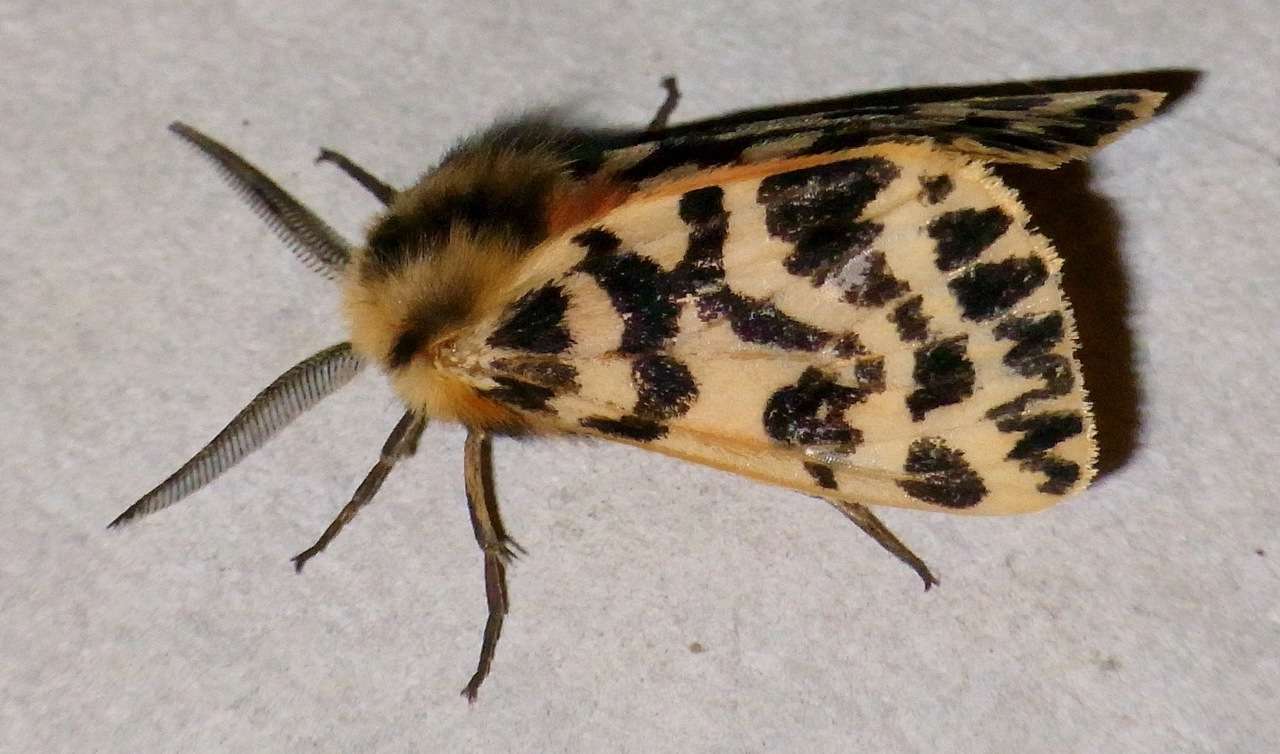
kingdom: Animalia
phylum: Arthropoda
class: Insecta
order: Lepidoptera
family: Erebidae
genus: Ardices
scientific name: Ardices curvata
